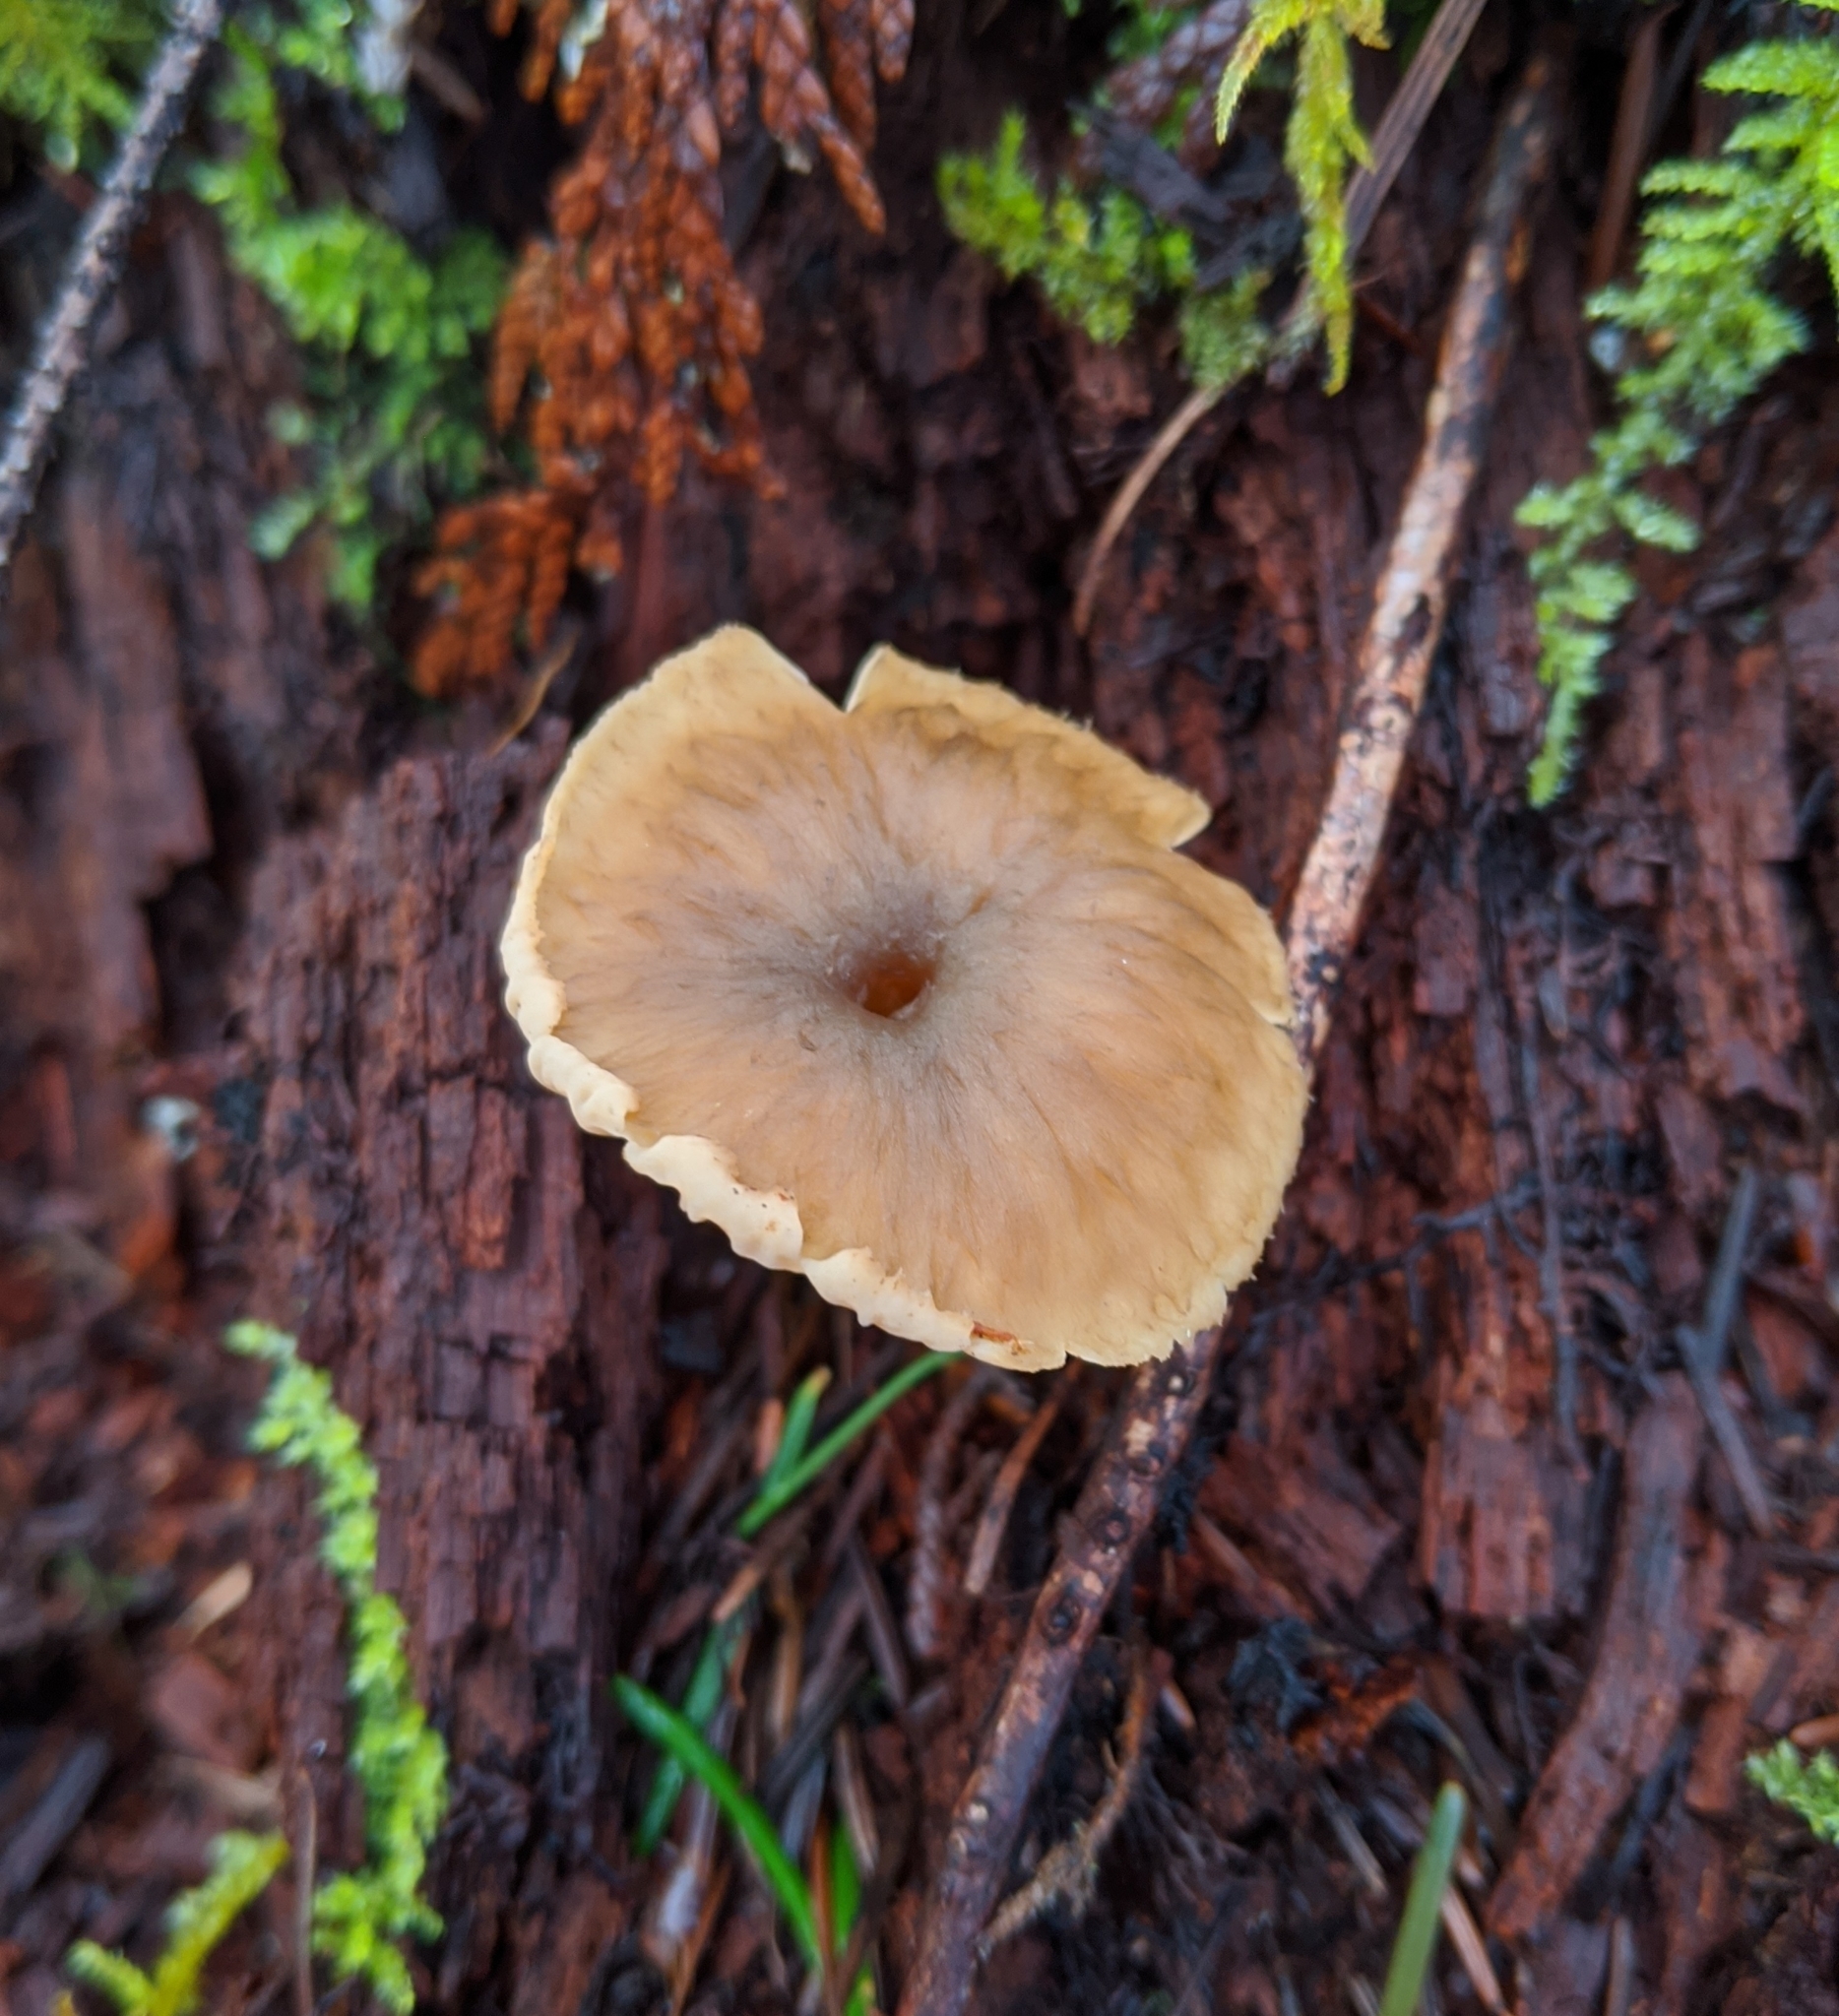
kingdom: Fungi
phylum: Basidiomycota
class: Agaricomycetes
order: Cantharellales
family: Hydnaceae
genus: Craterellus
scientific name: Craterellus tubaeformis
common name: Yellowfoot
